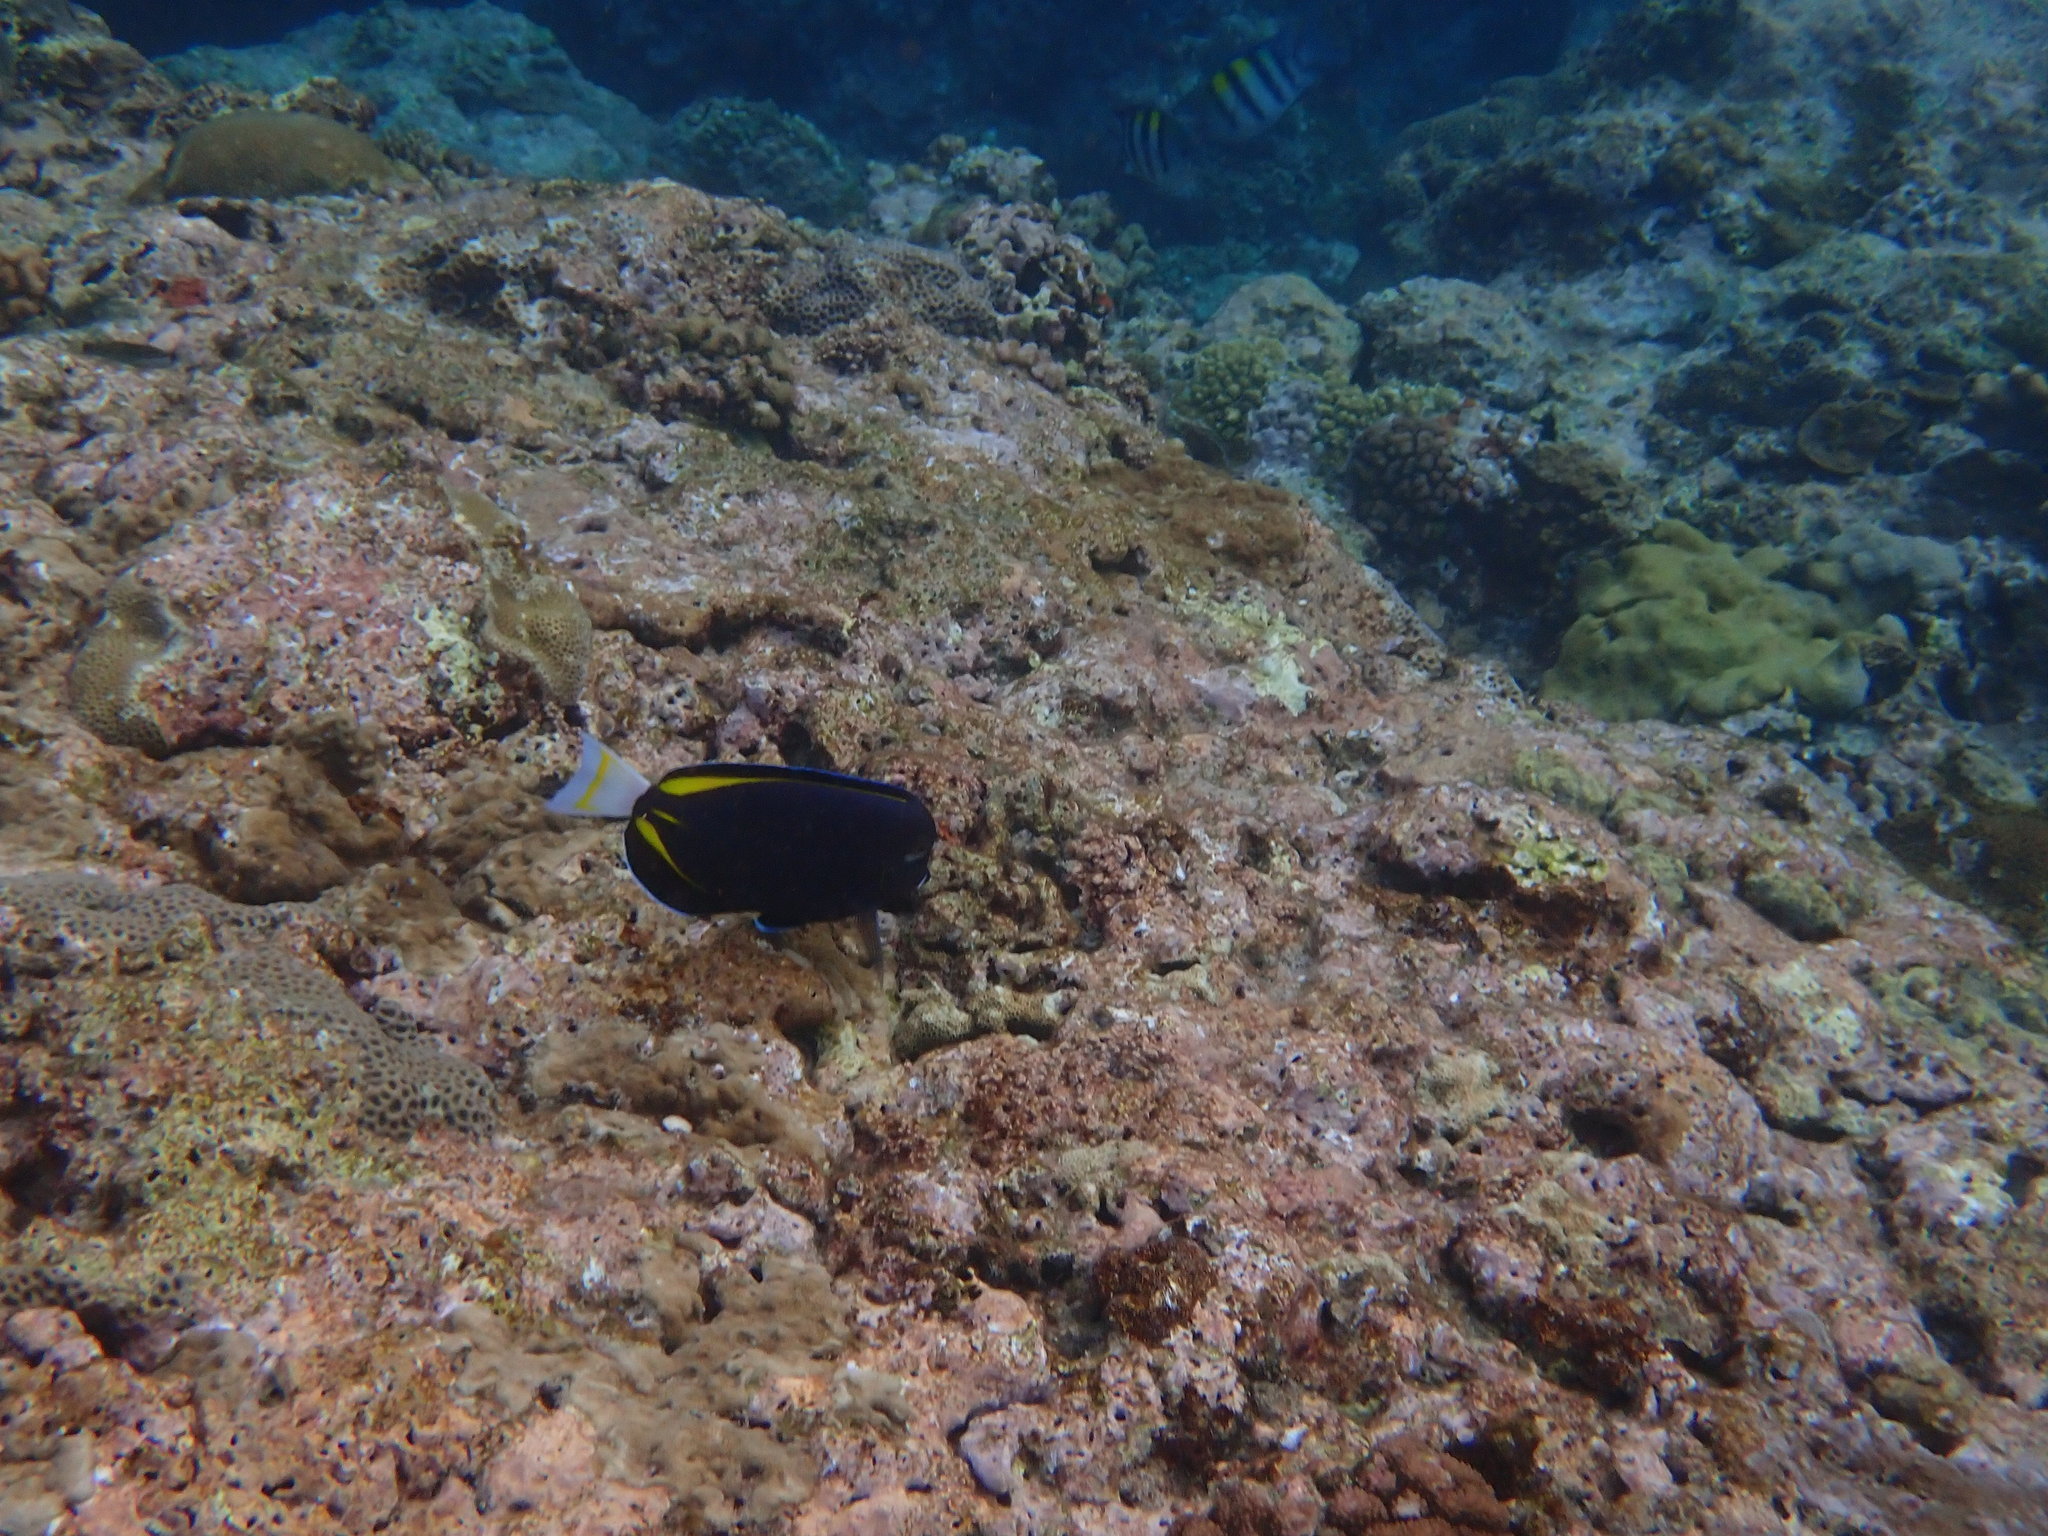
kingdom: Animalia
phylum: Chordata
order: Perciformes
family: Acanthuridae
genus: Acanthurus
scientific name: Acanthurus nigricans
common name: Whitecheek surgeonfish
